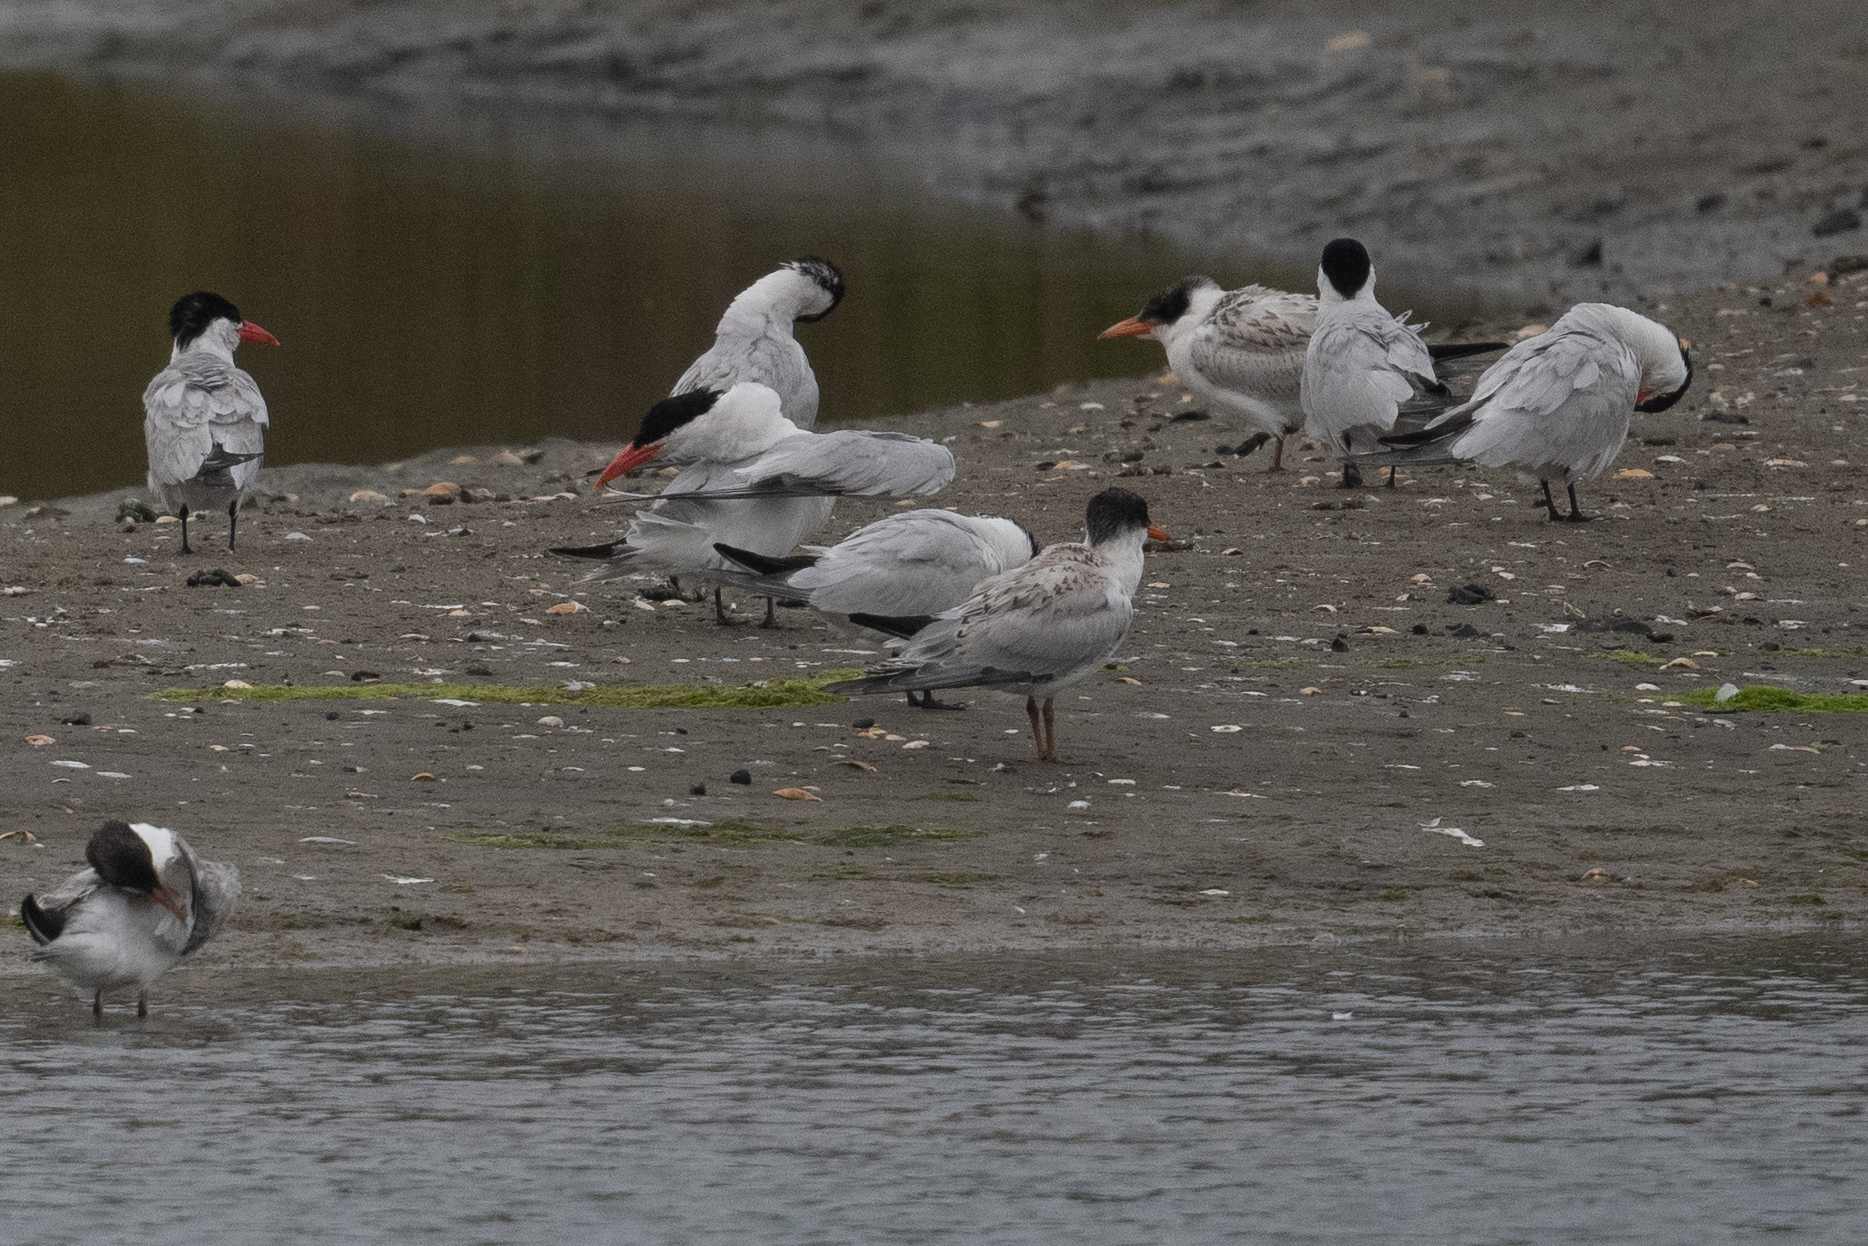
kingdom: Animalia
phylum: Chordata
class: Aves
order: Charadriiformes
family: Laridae
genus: Hydroprogne
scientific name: Hydroprogne caspia
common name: Caspian tern
